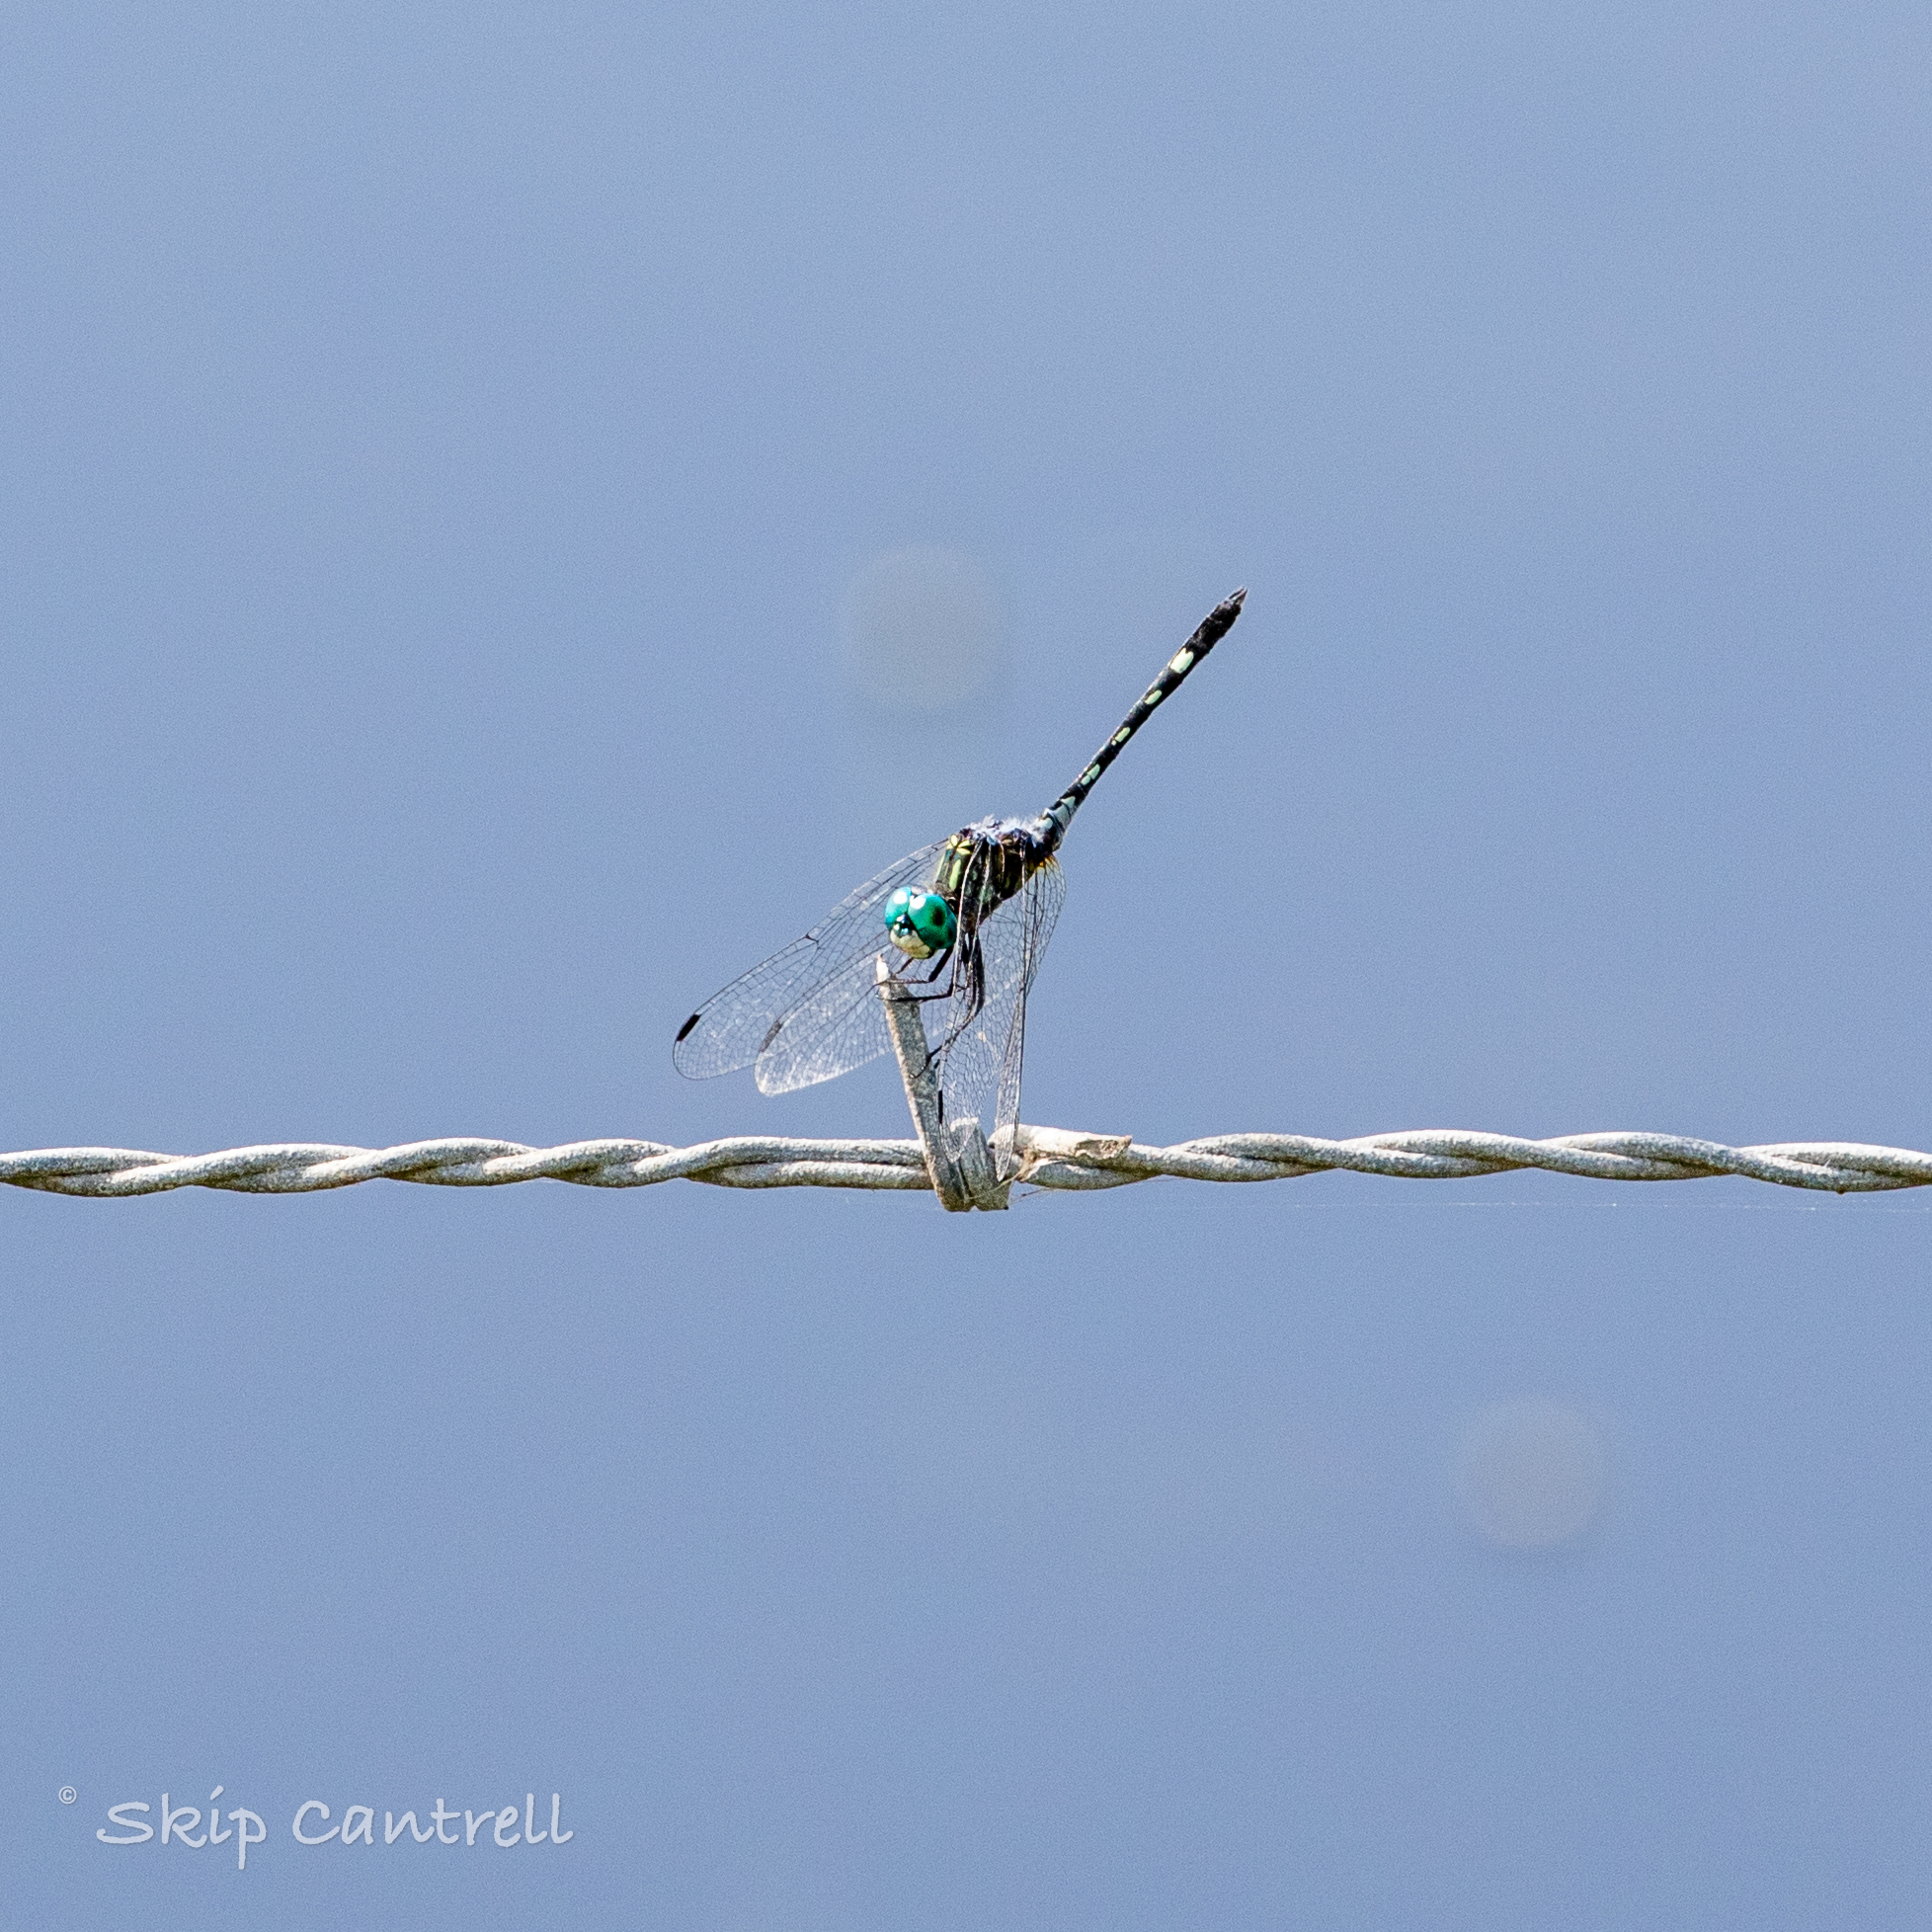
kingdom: Animalia
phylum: Arthropoda
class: Insecta
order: Odonata
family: Libellulidae
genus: Micrathyria
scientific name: Micrathyria hagenii
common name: Thornbush dasher
